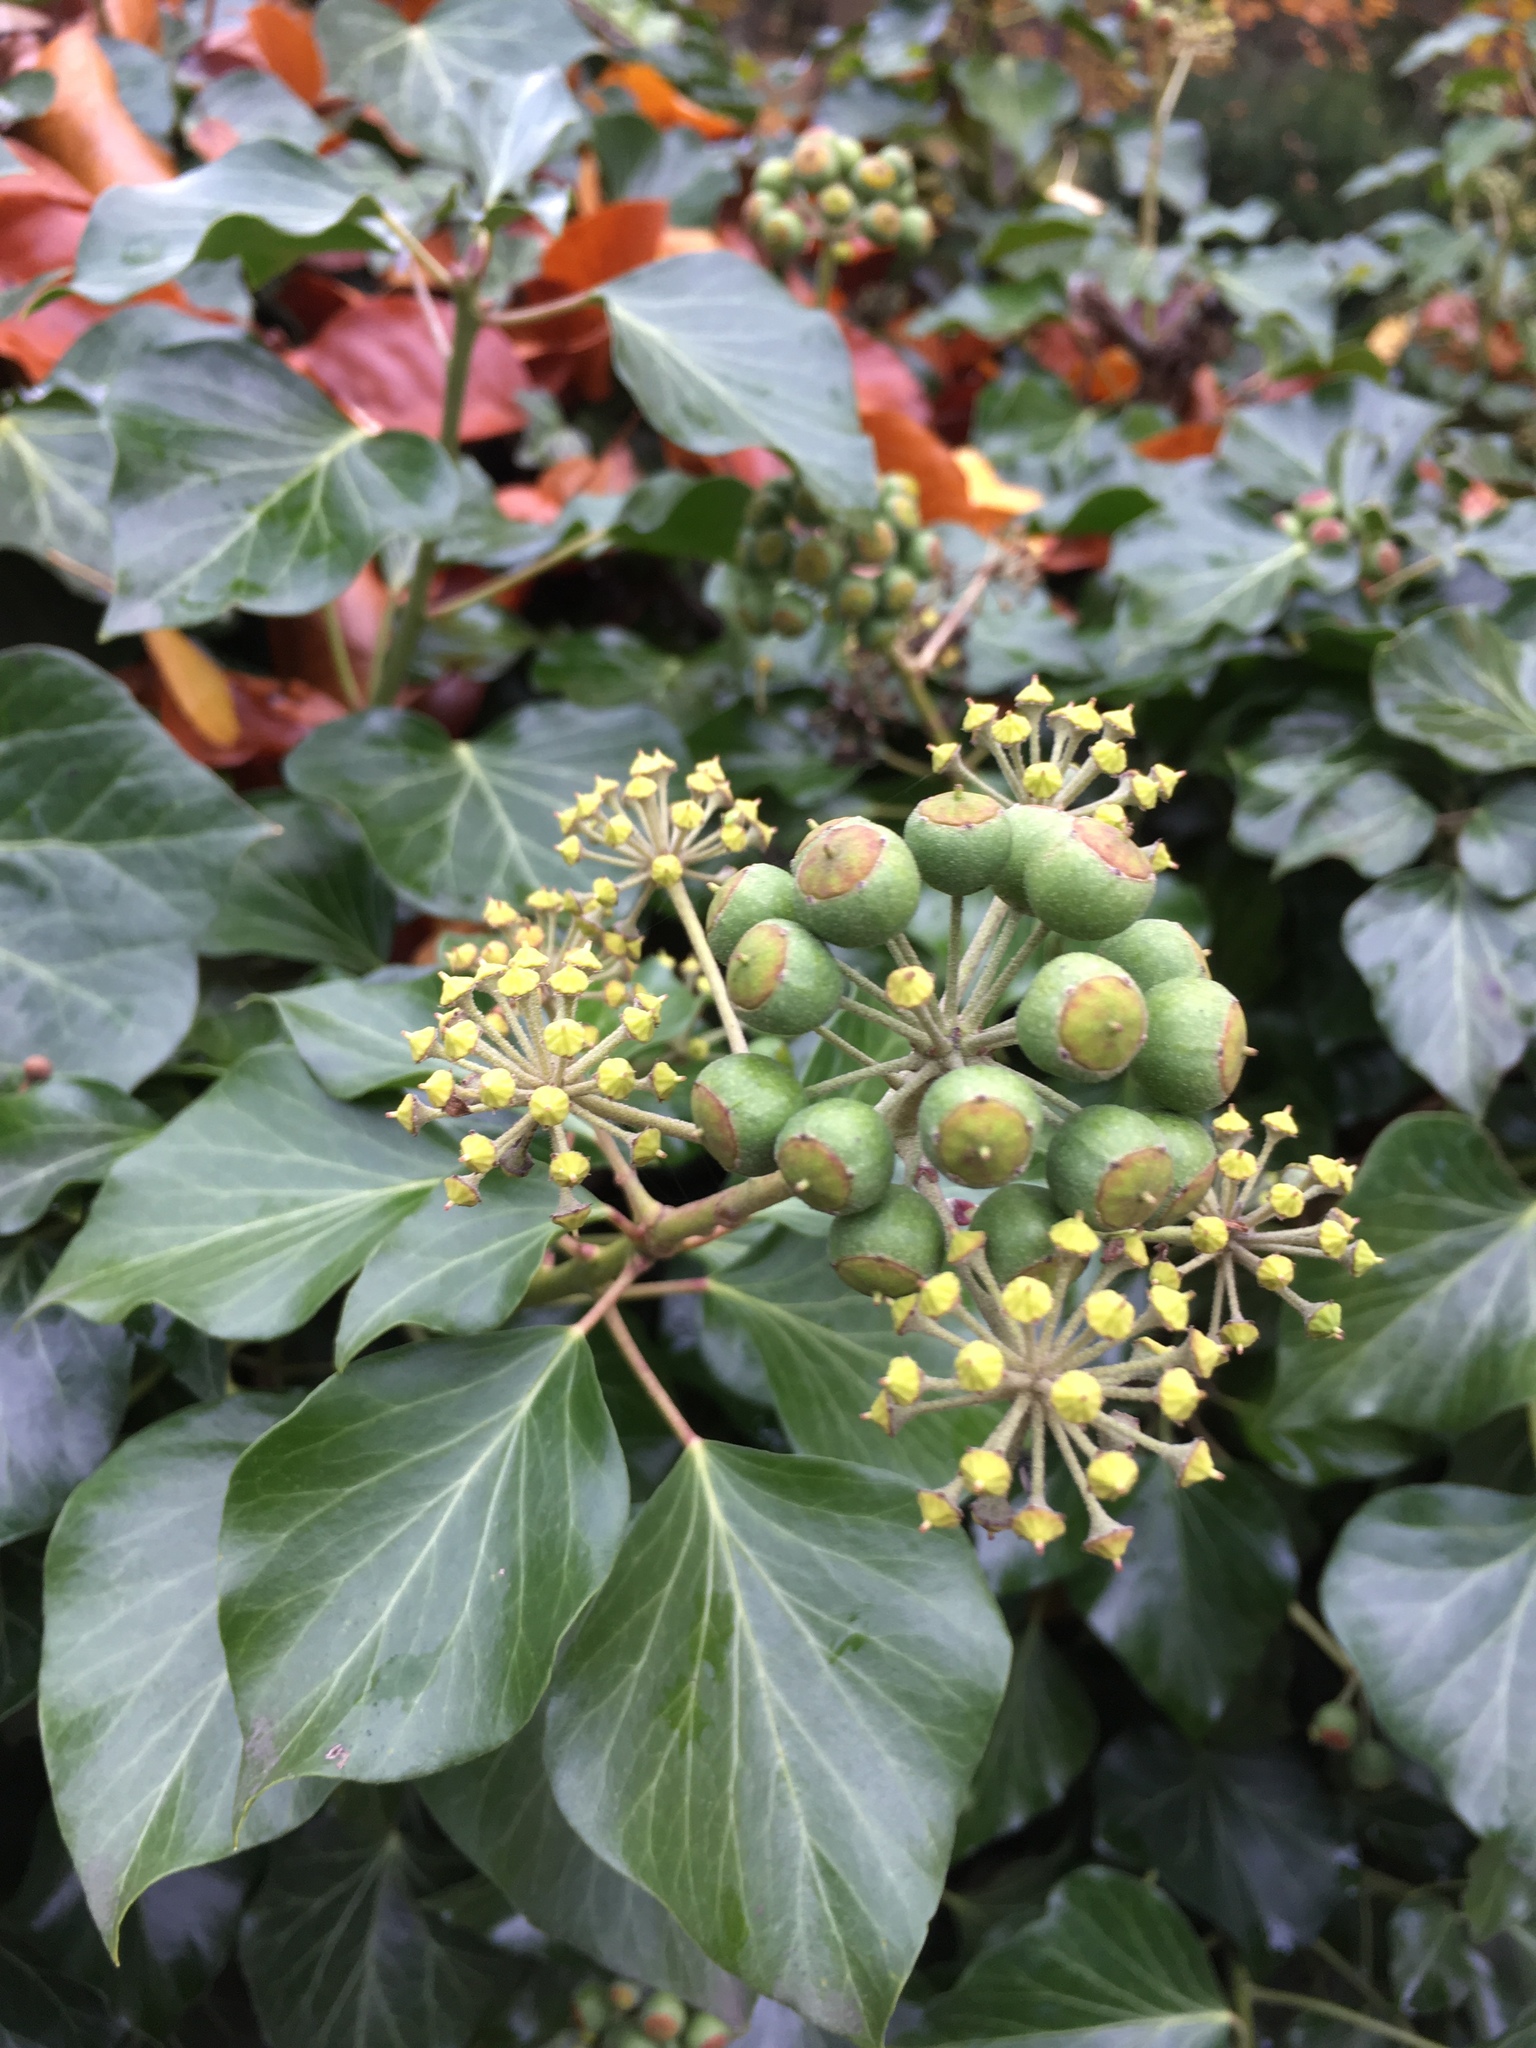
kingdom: Plantae
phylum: Tracheophyta
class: Magnoliopsida
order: Apiales
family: Araliaceae
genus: Hedera
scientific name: Hedera helix
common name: Ivy
